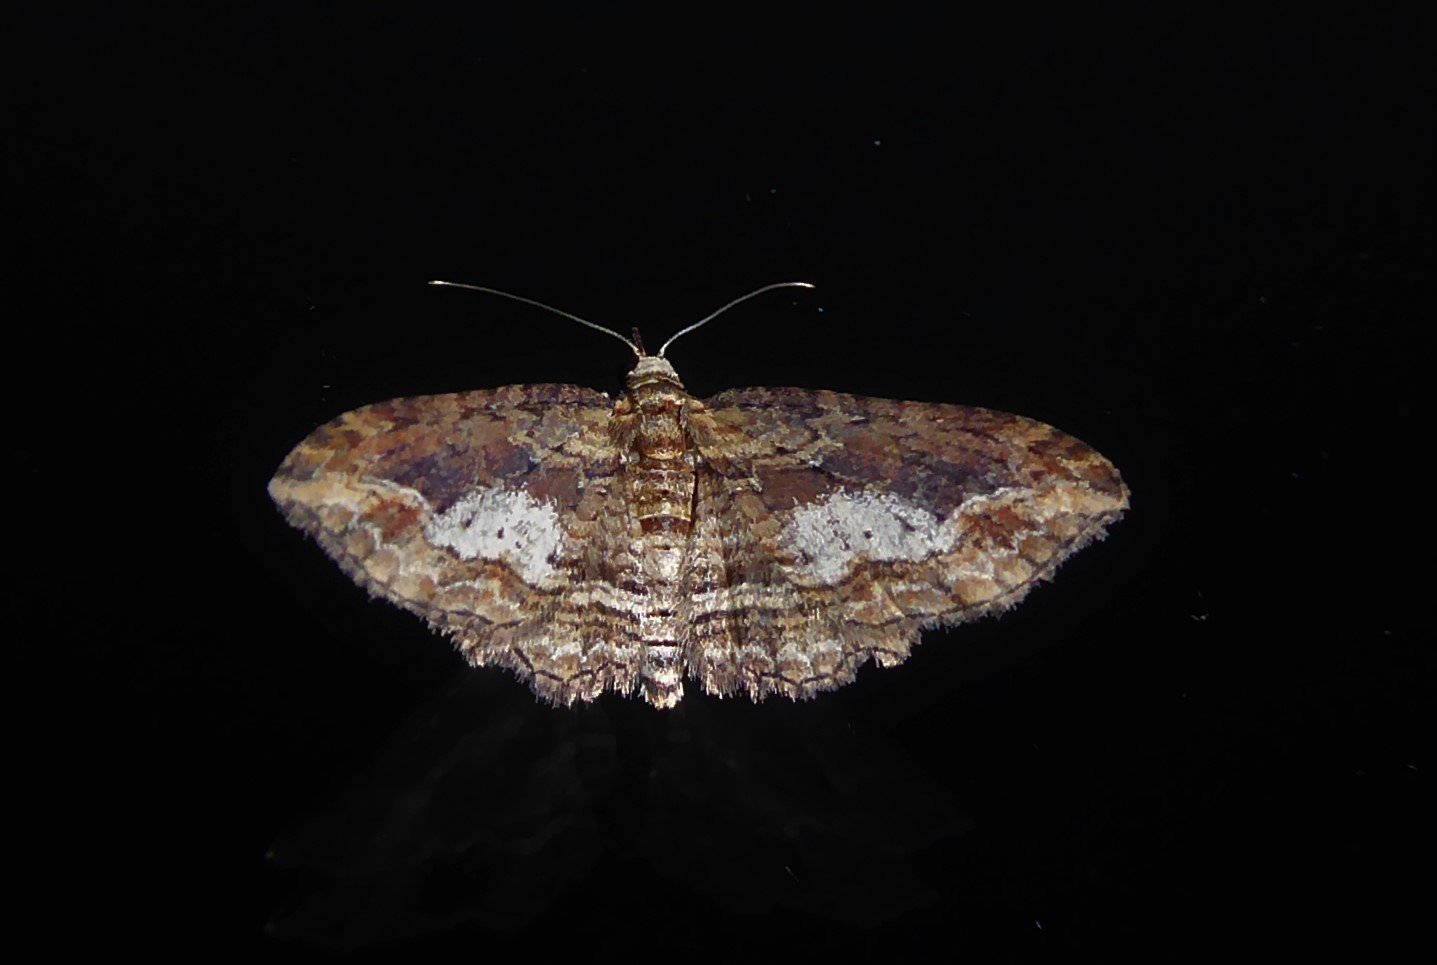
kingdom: Animalia
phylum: Arthropoda
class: Insecta
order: Lepidoptera
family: Geometridae
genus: Chloroclystis
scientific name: Chloroclystis filata
